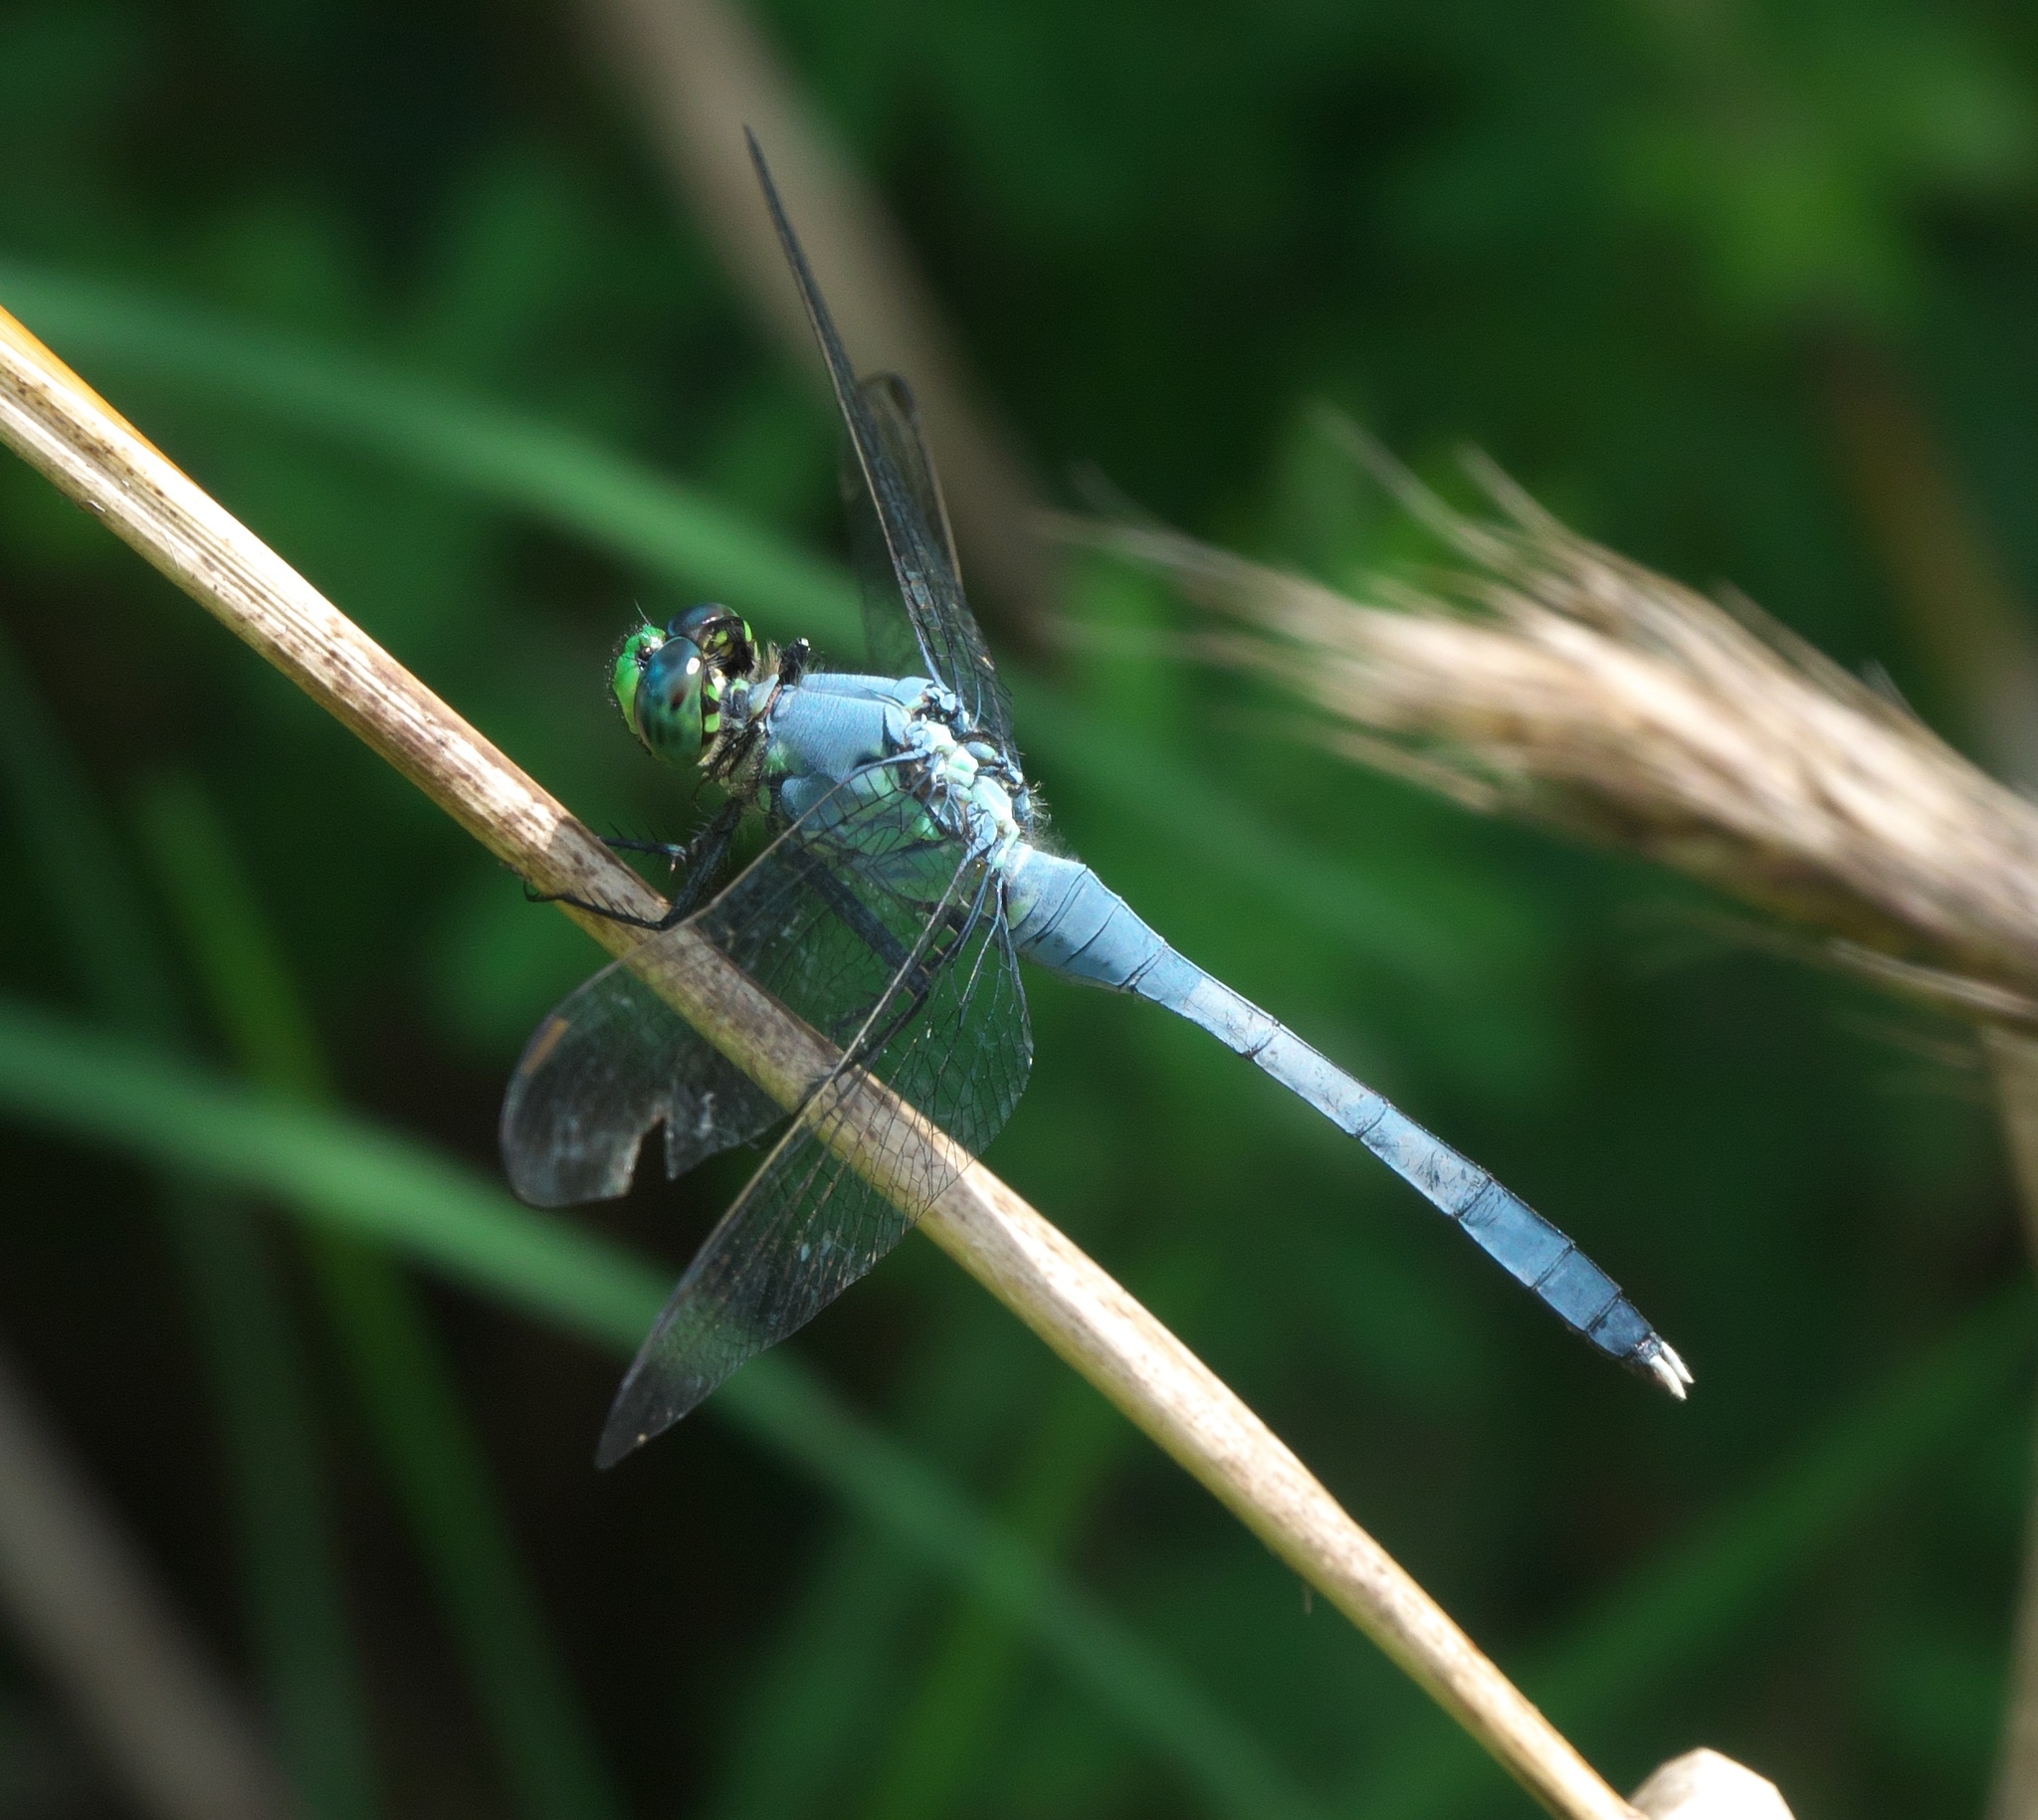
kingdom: Animalia
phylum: Arthropoda
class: Insecta
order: Odonata
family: Libellulidae
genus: Erythemis
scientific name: Erythemis simplicicollis
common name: Eastern pondhawk
